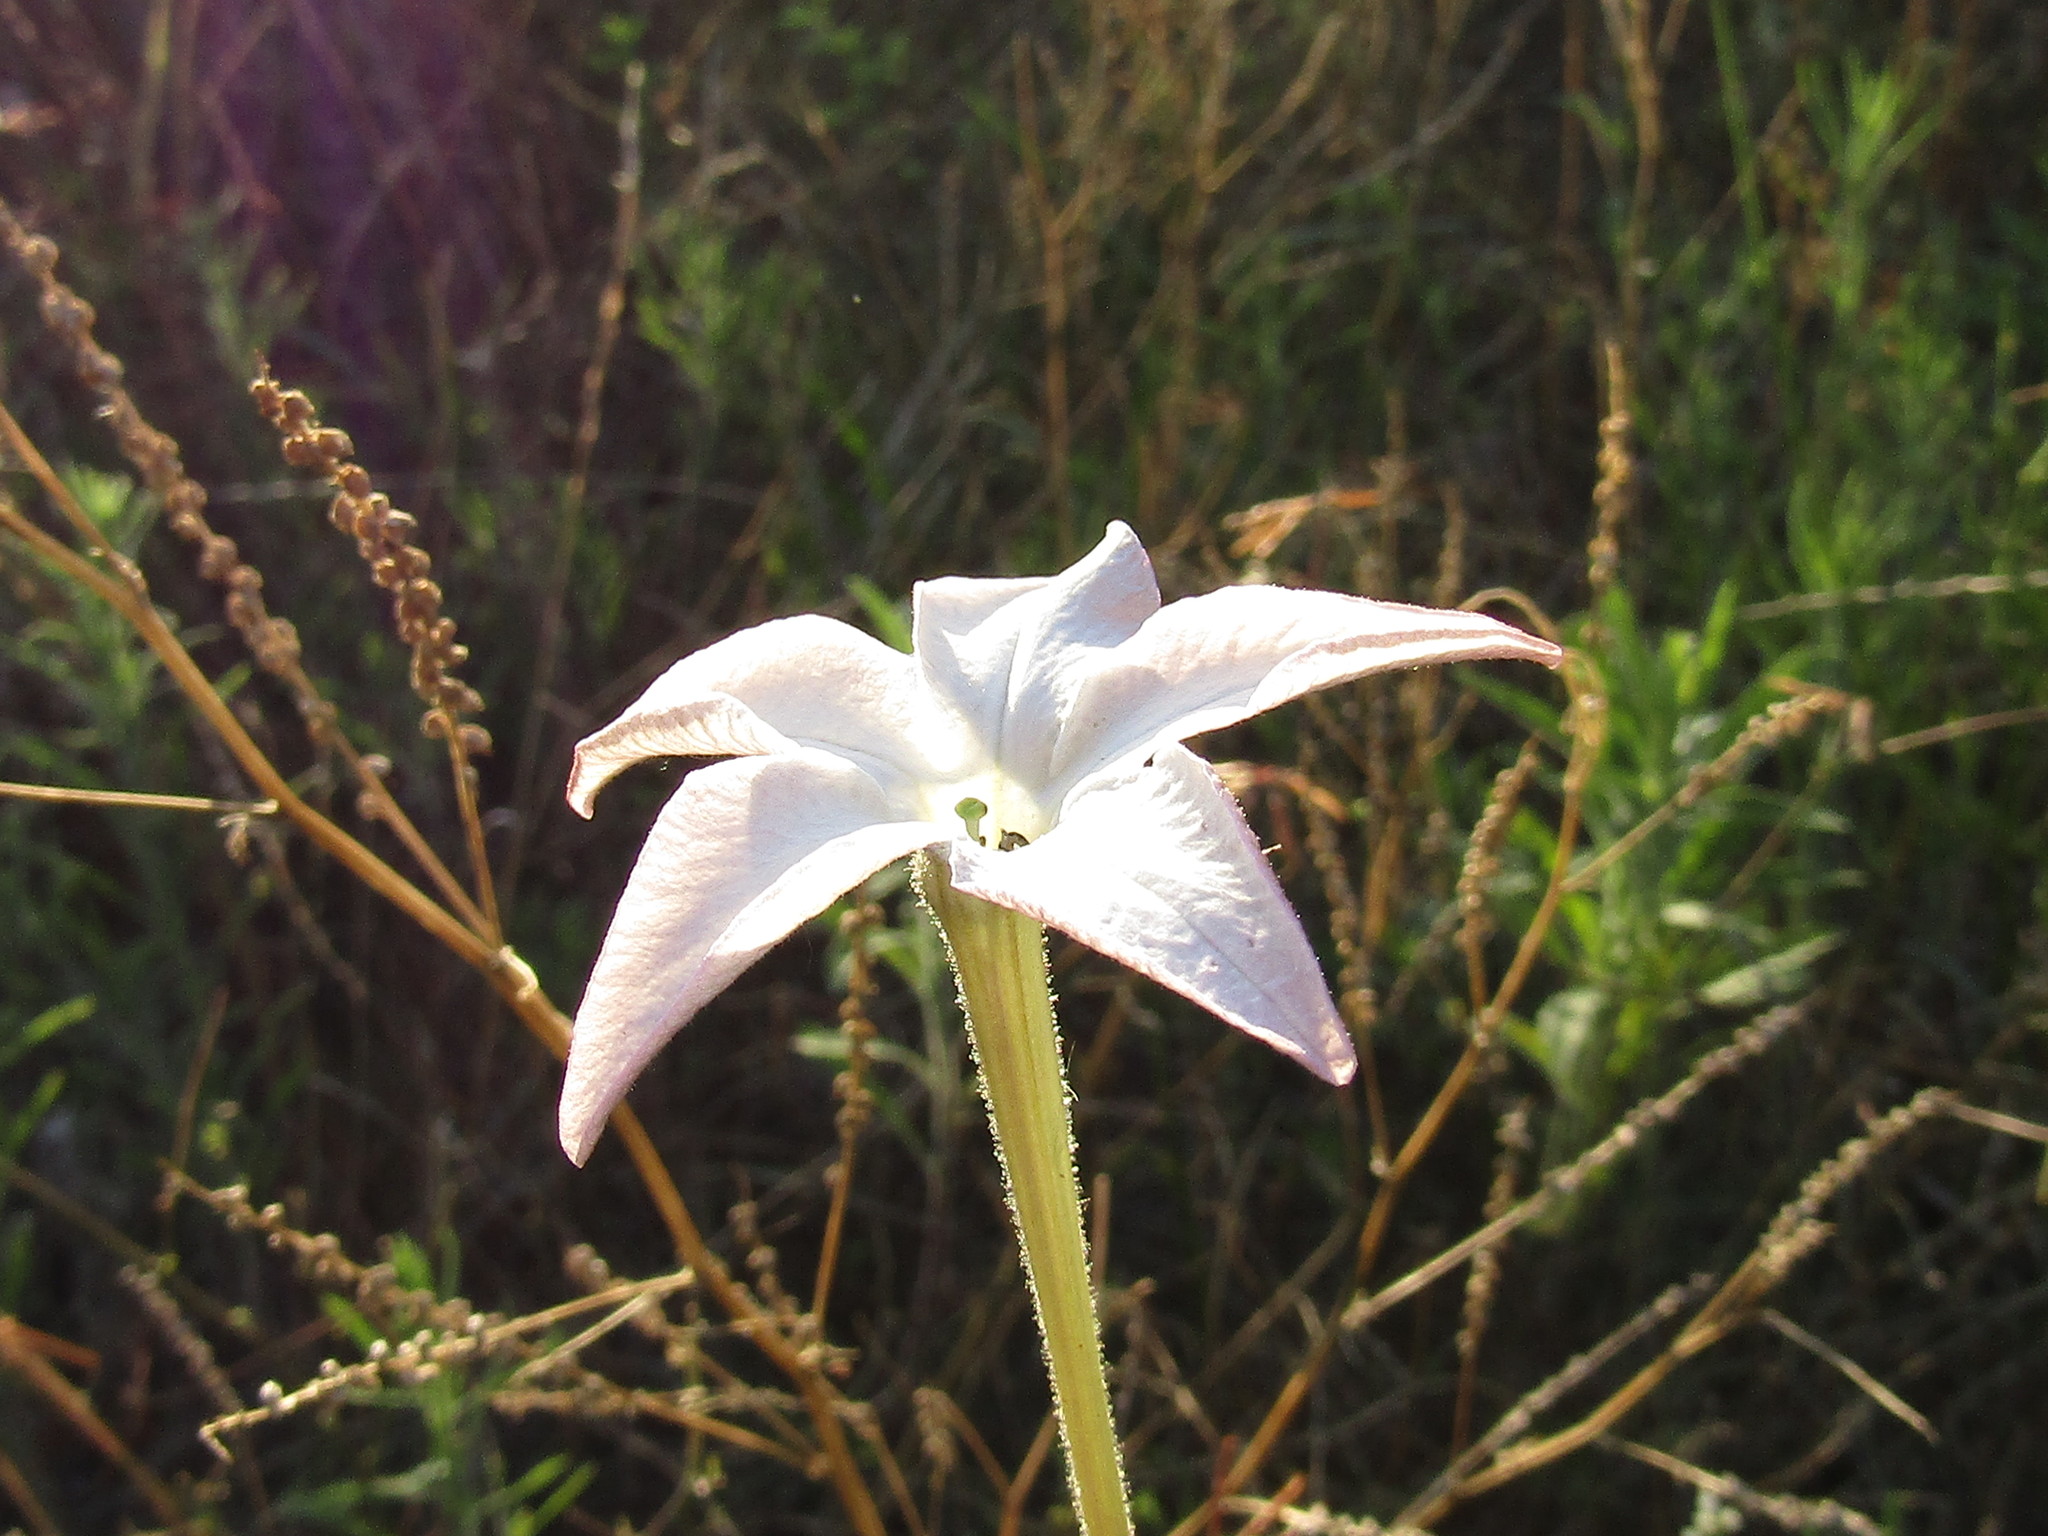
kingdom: Plantae
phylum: Tracheophyta
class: Magnoliopsida
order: Solanales
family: Solanaceae
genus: Nicotiana
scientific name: Nicotiana longiflora
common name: Long-flowered tobacco
